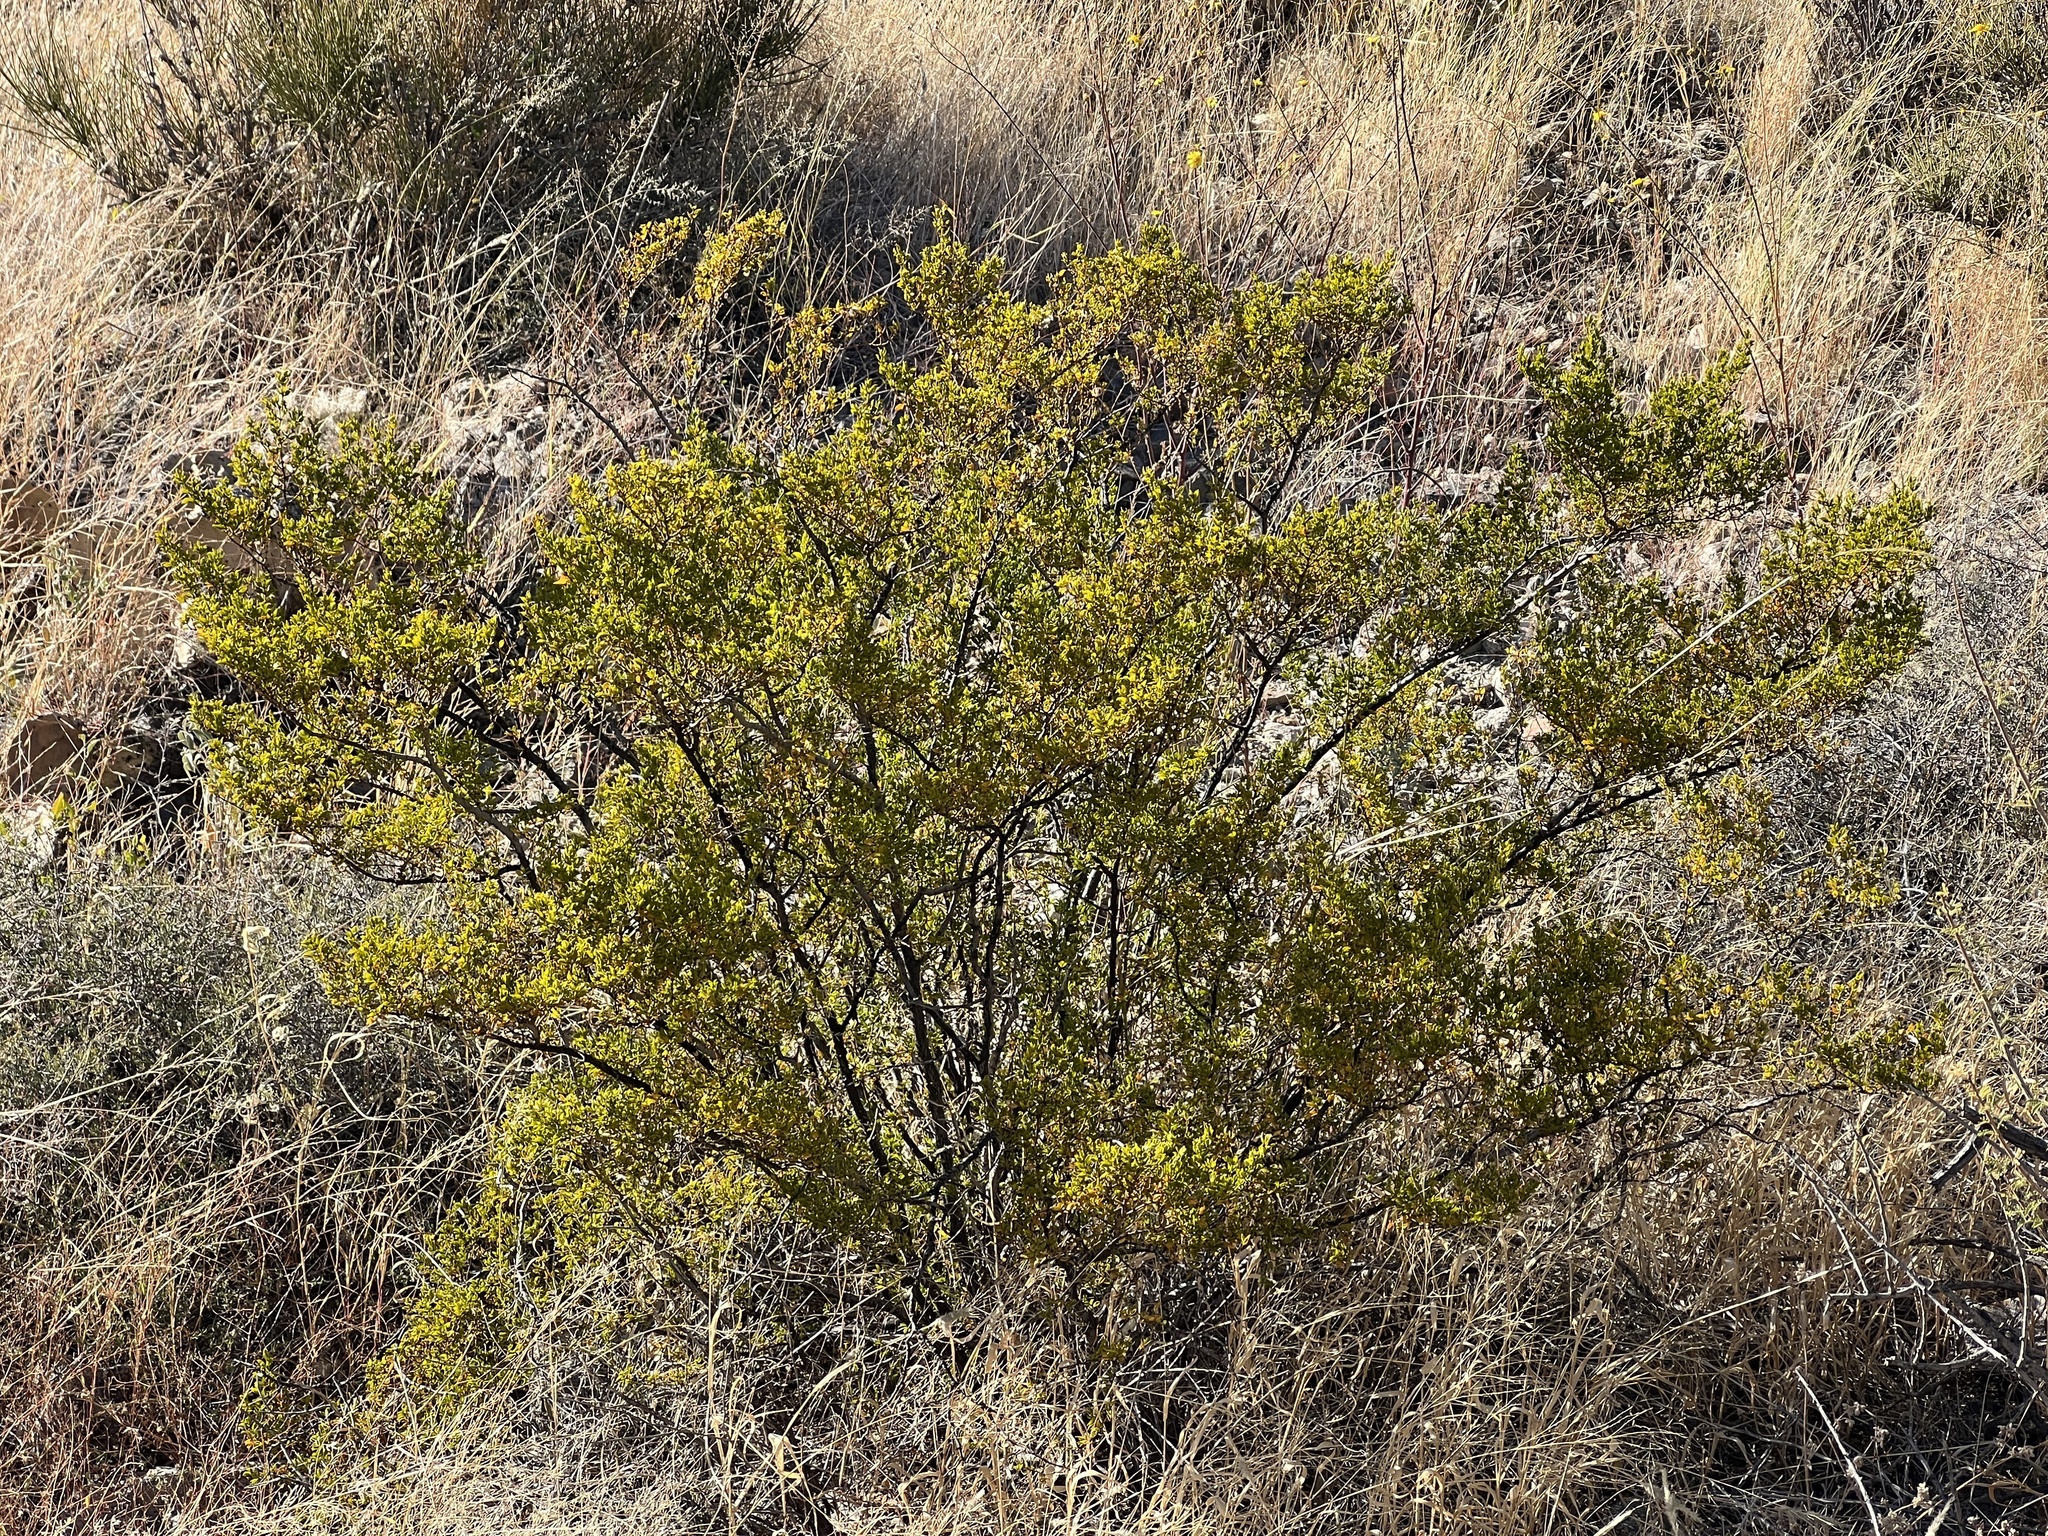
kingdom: Plantae
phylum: Tracheophyta
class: Magnoliopsida
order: Zygophyllales
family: Zygophyllaceae
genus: Larrea
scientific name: Larrea tridentata
